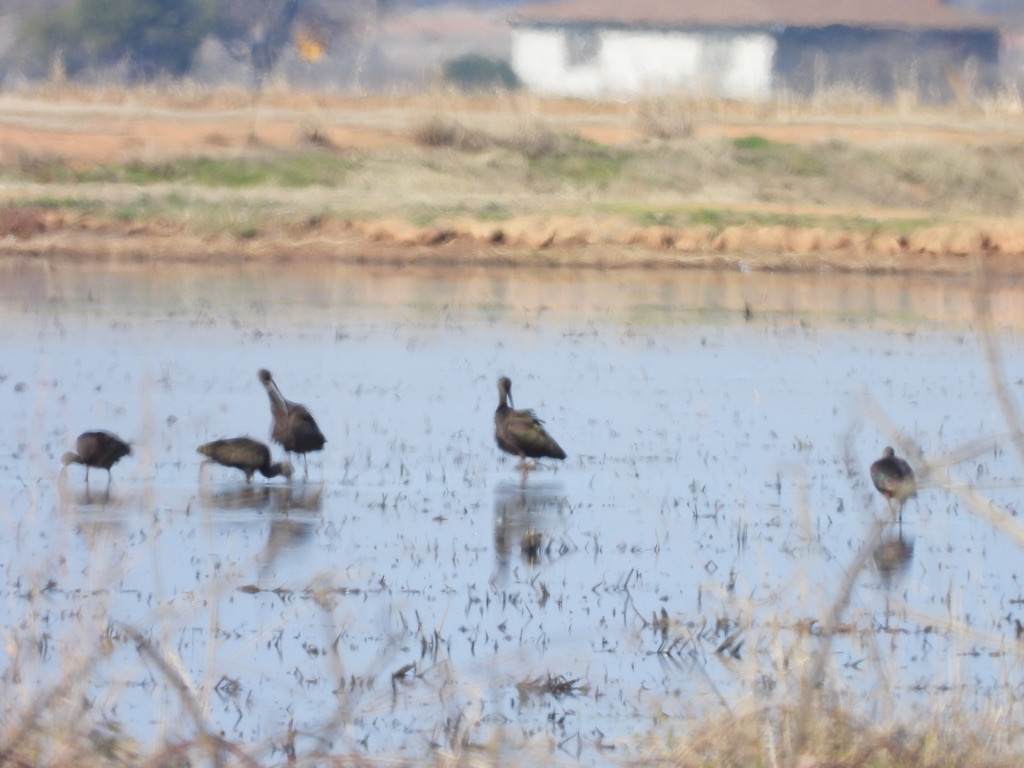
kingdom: Animalia
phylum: Chordata
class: Aves
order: Pelecaniformes
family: Threskiornithidae
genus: Plegadis
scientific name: Plegadis chihi
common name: White-faced ibis
